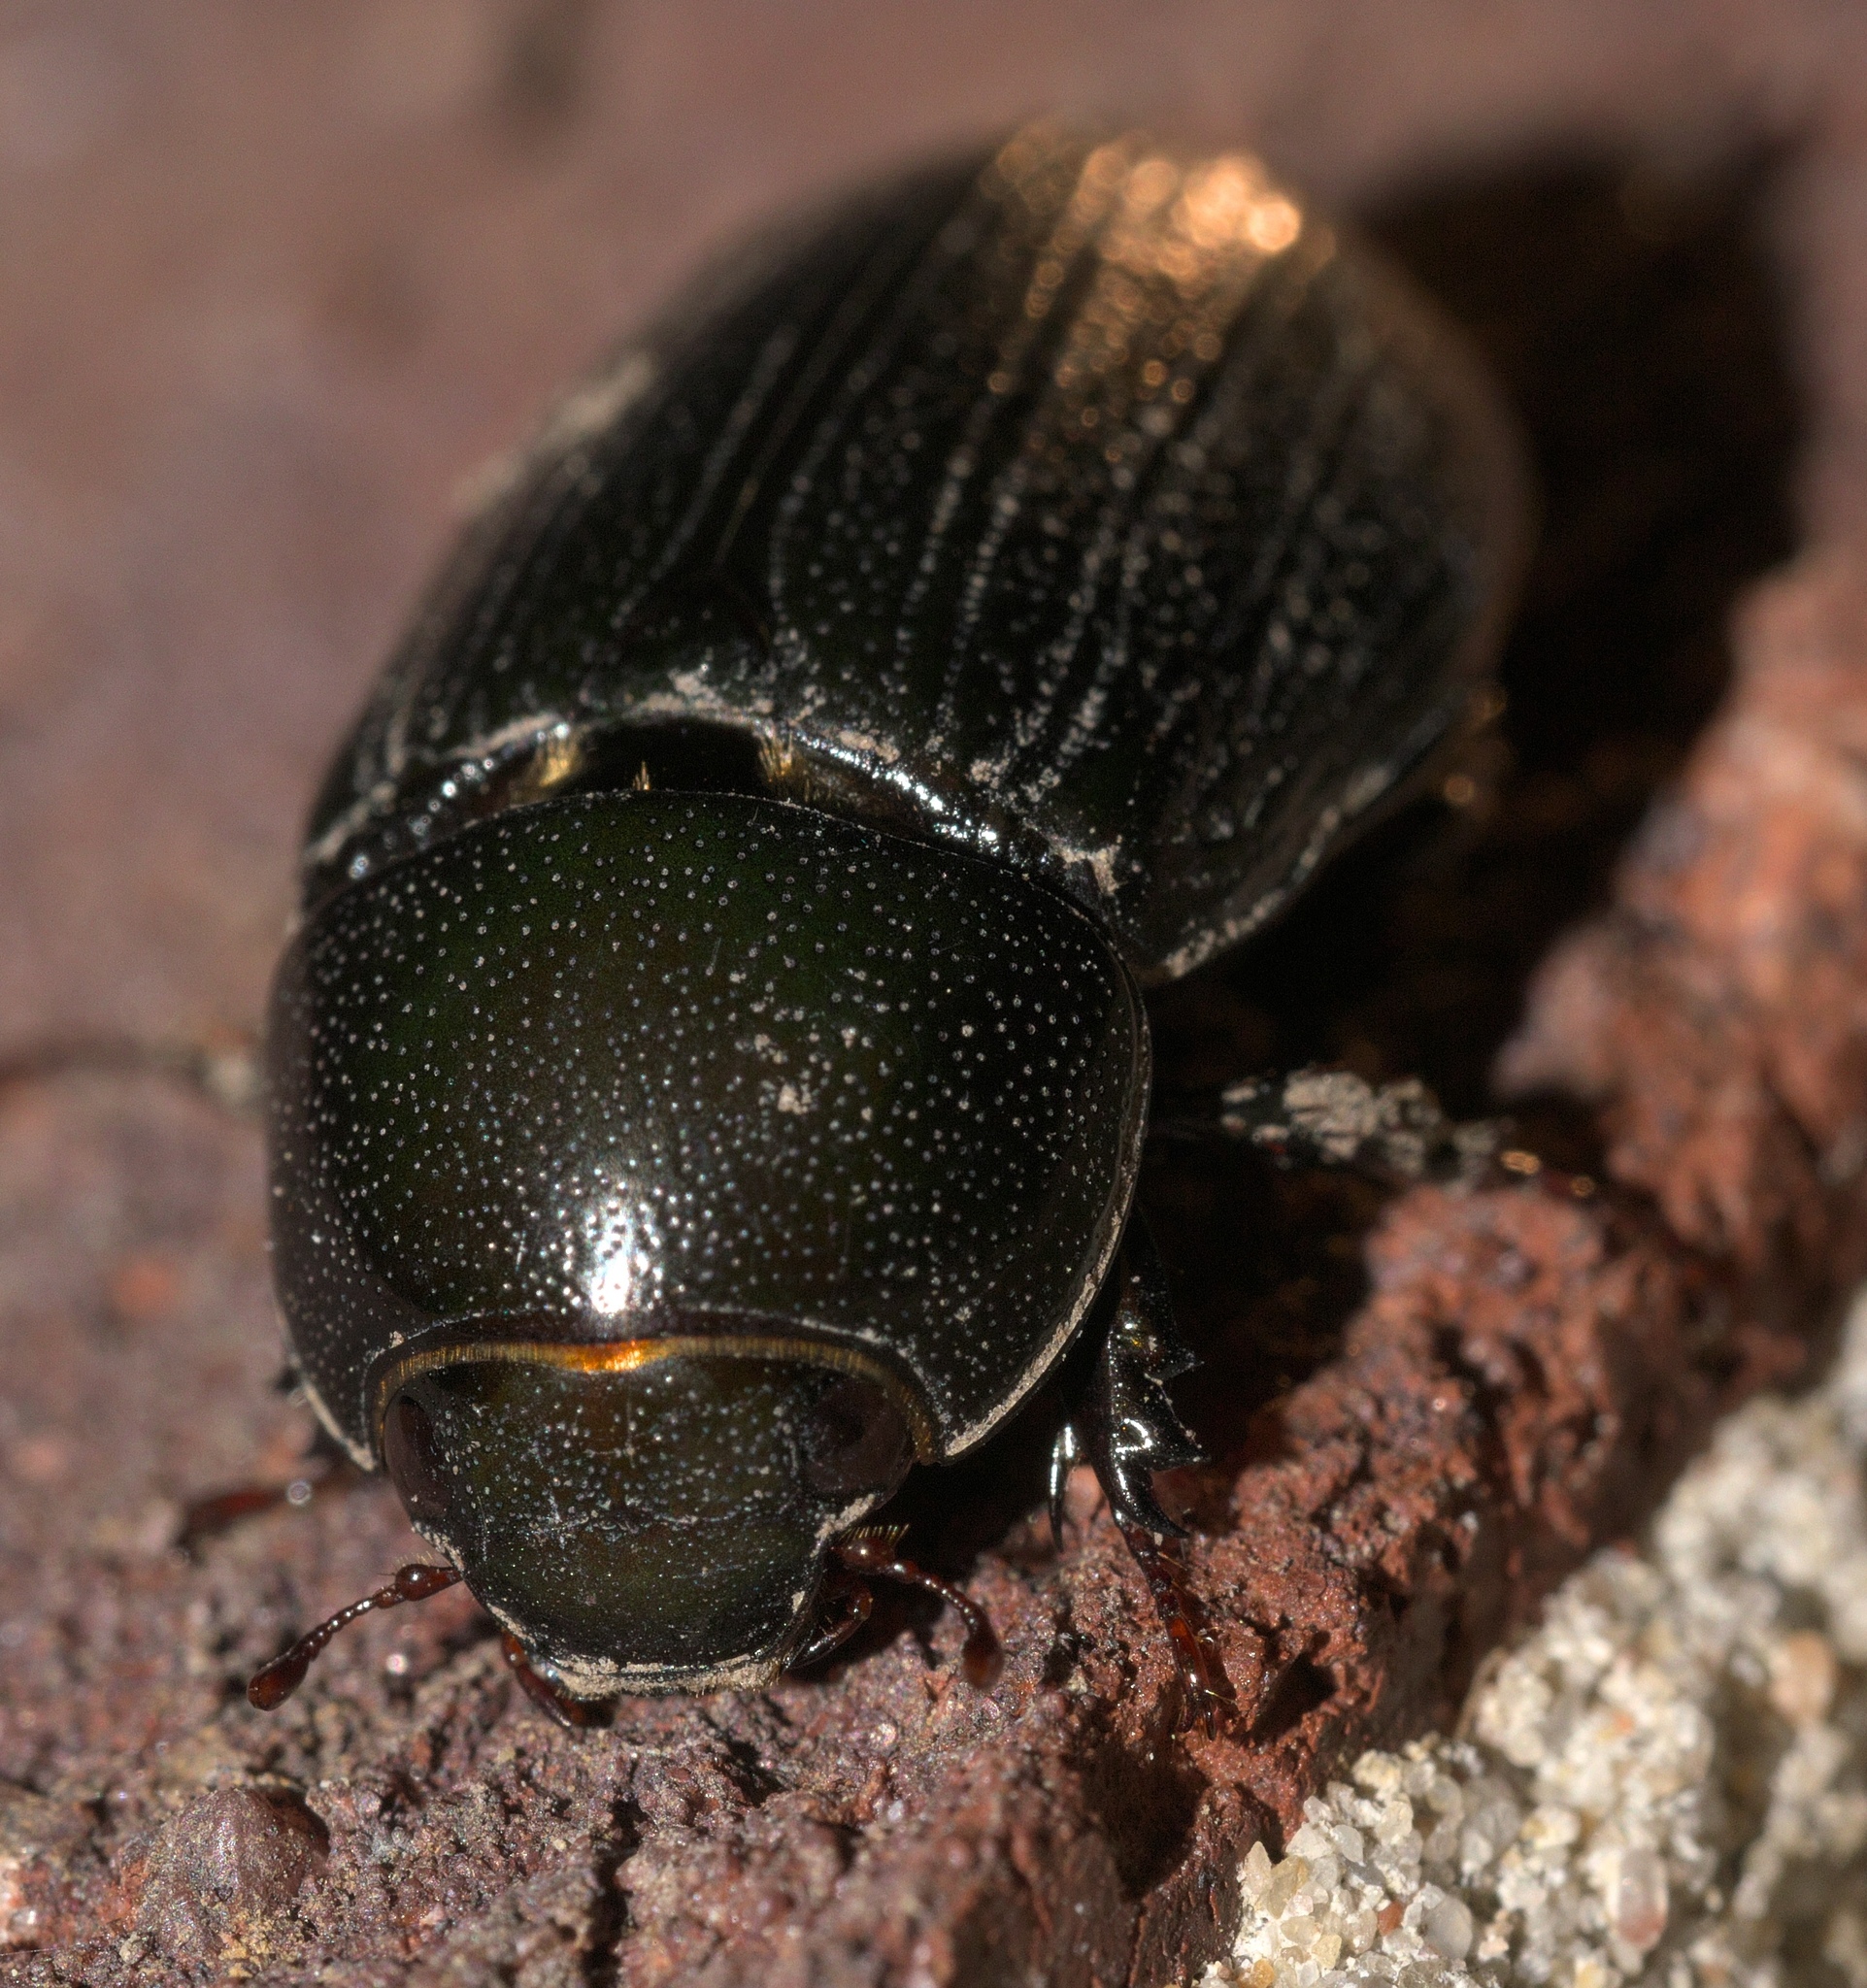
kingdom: Animalia
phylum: Arthropoda
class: Insecta
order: Coleoptera
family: Scarabaeidae
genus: Dyscinetus
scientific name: Dyscinetus morator
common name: Rice beetle
